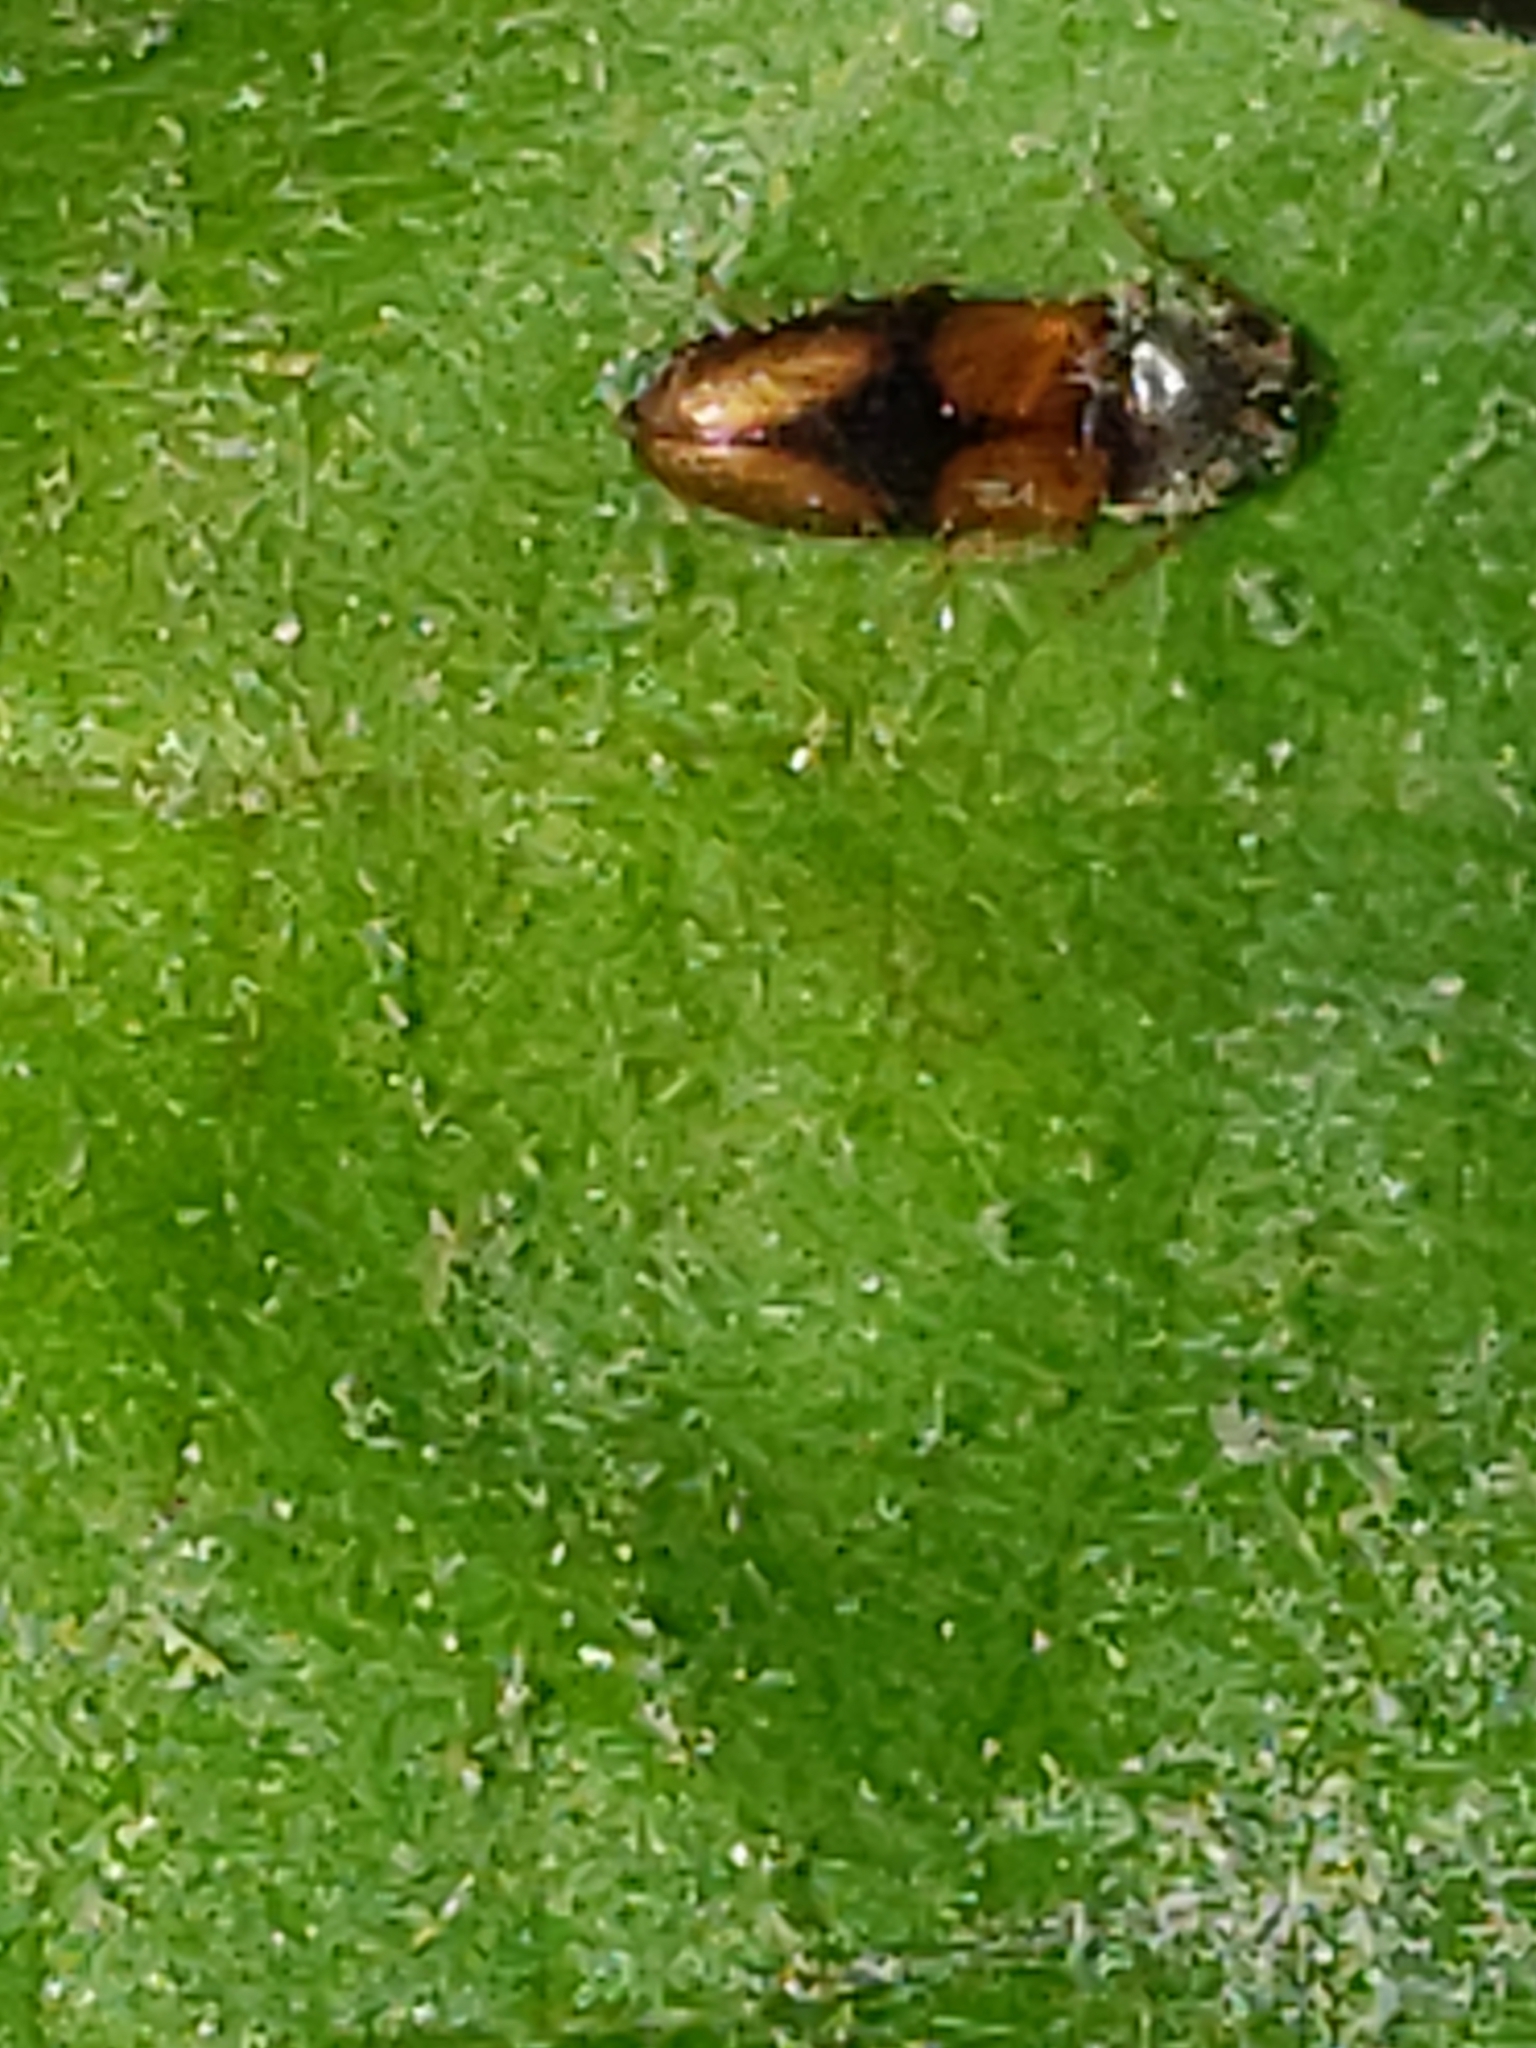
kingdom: Animalia
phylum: Arthropoda
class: Insecta
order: Coleoptera
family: Elateridae
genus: Horistonotus
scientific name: Horistonotus curiatus
